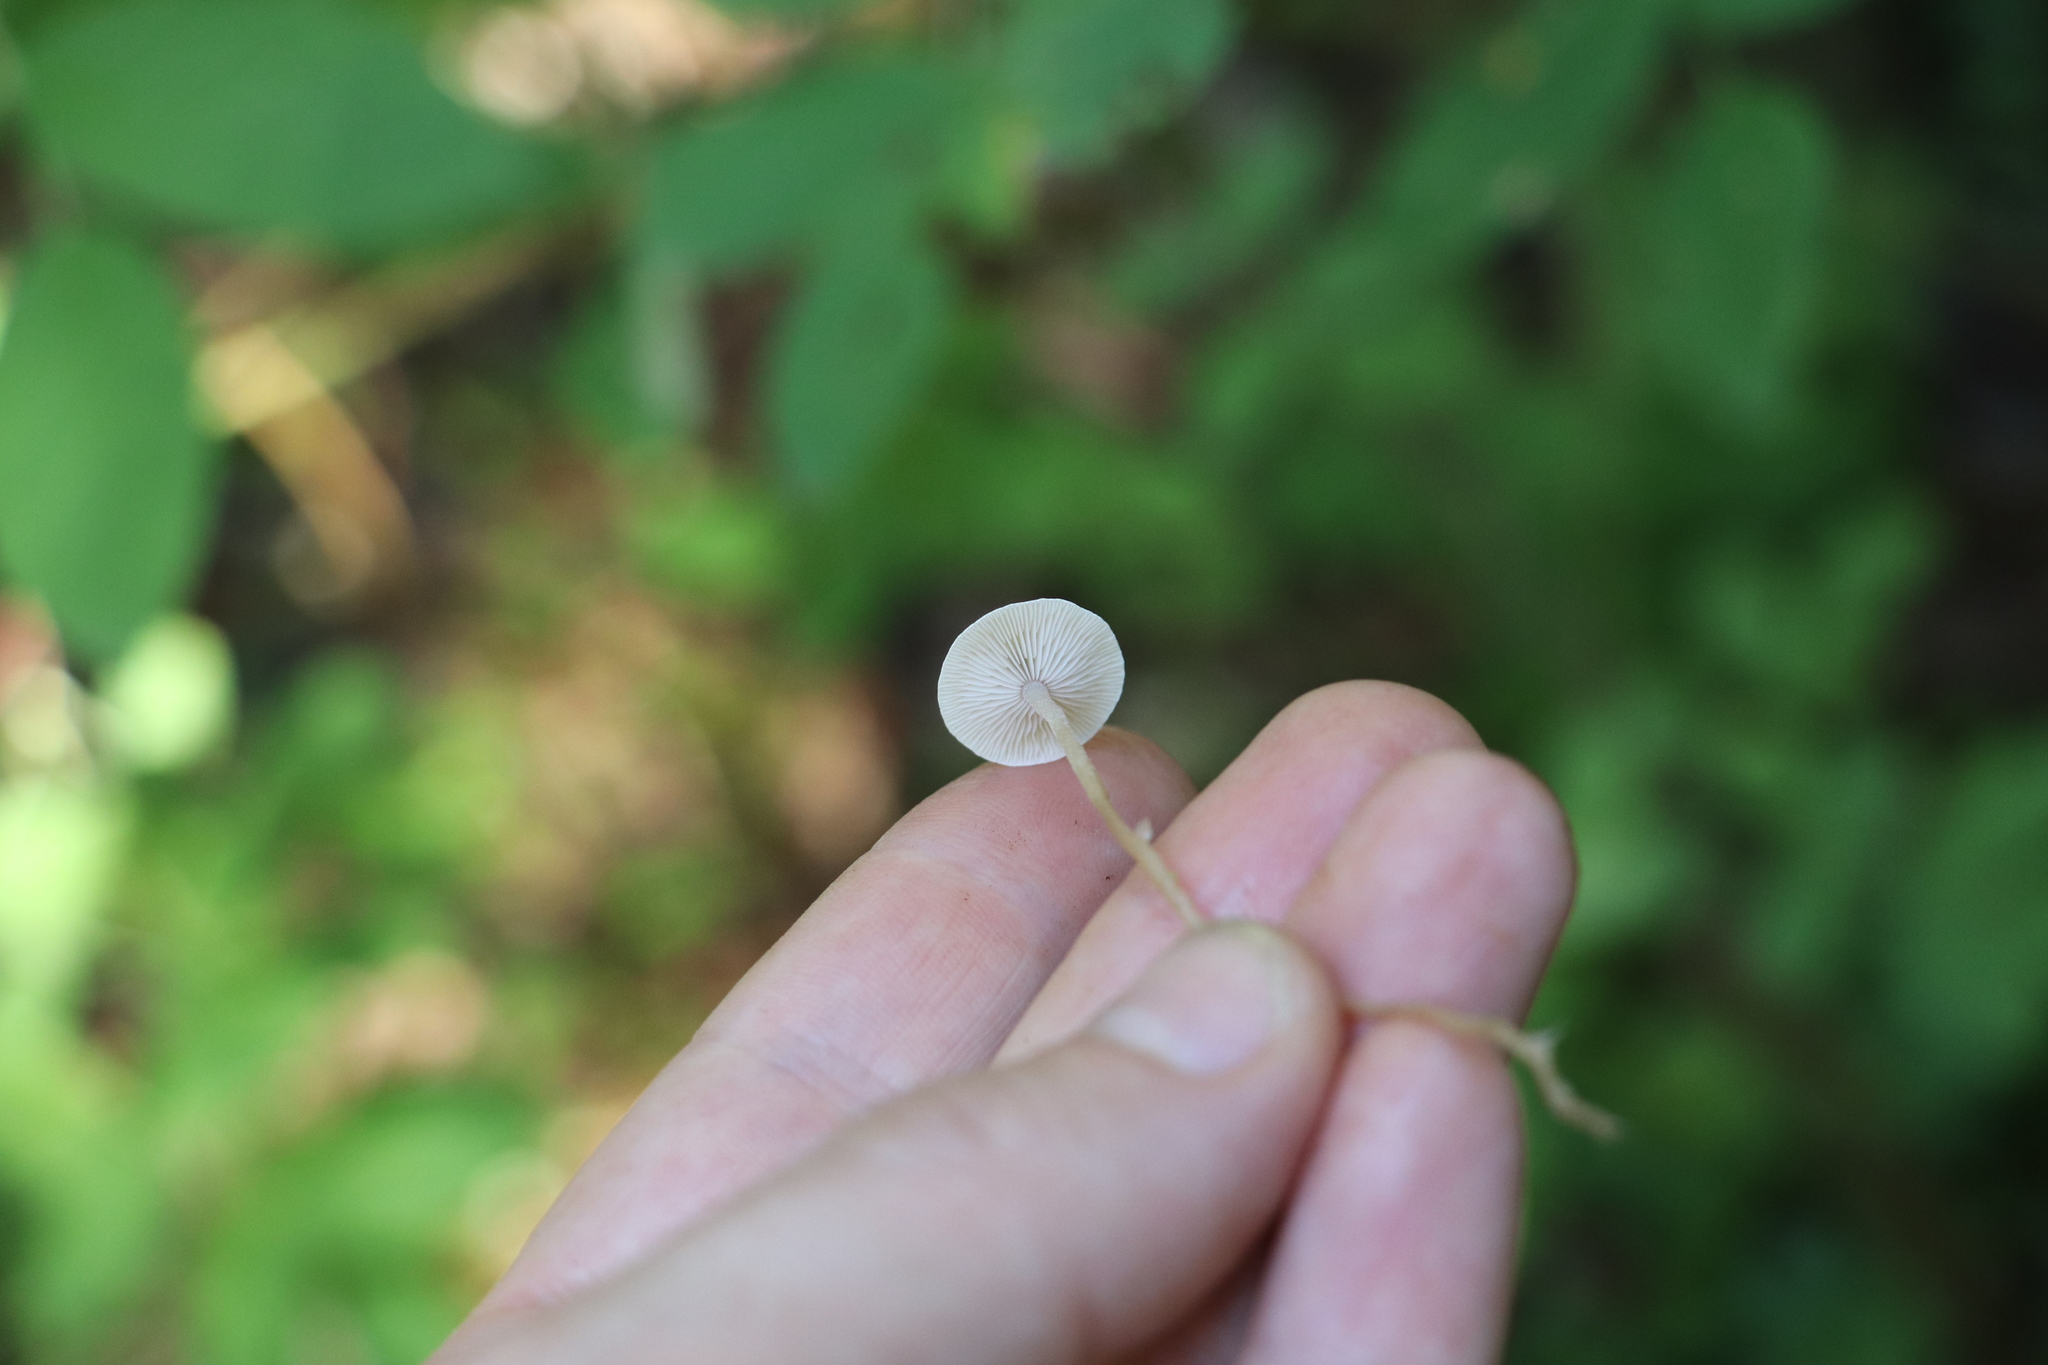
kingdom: Fungi
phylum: Basidiomycota
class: Agaricomycetes
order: Agaricales
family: Tricholomataceae
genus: Collybia
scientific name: Collybia cirrhata
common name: Piggyback shanklet
